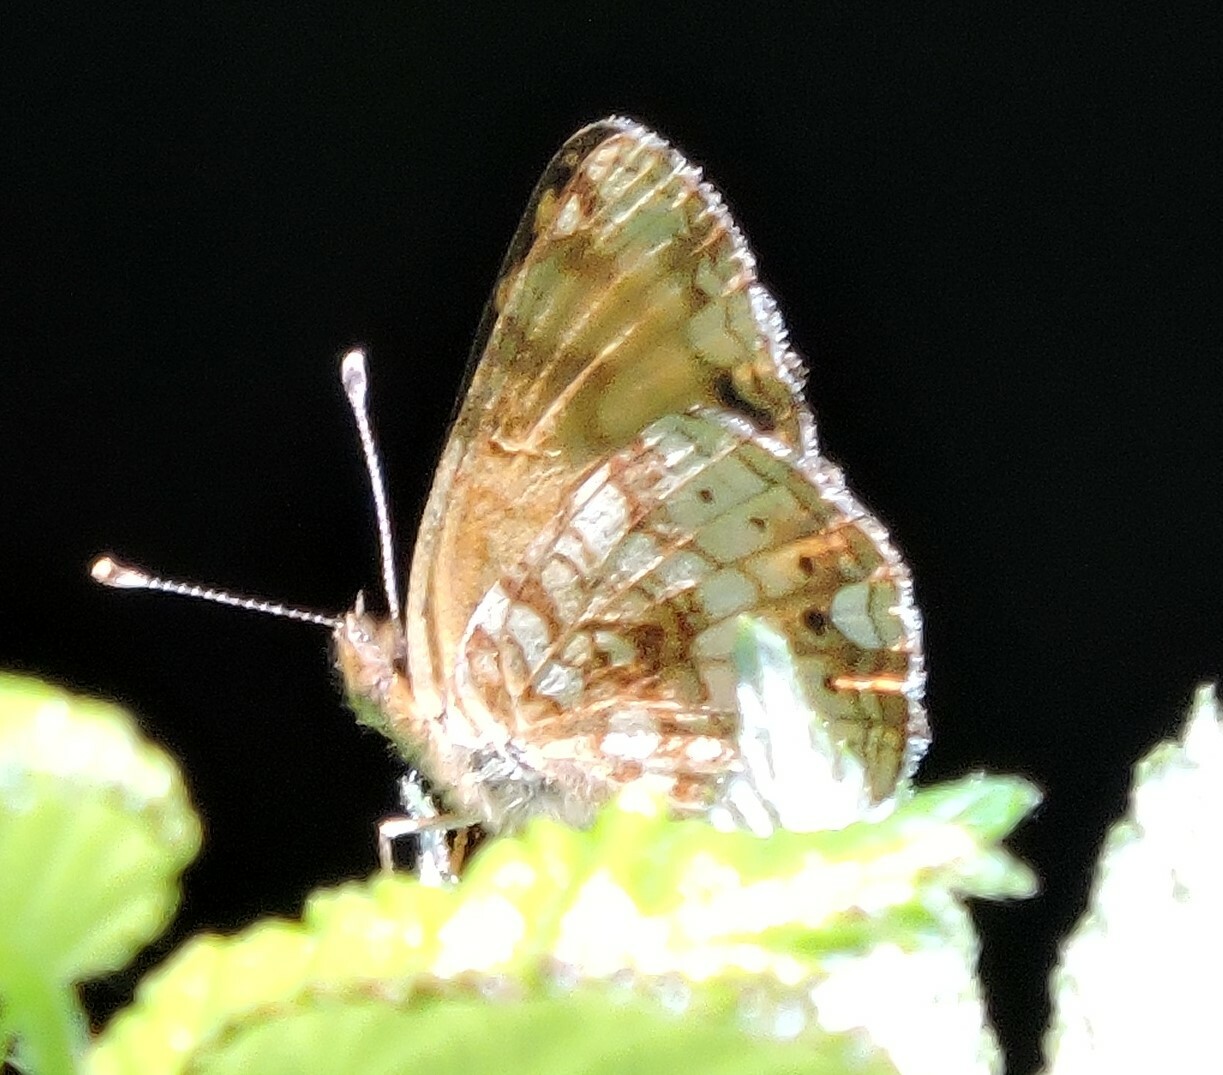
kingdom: Animalia
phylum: Arthropoda
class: Insecta
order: Lepidoptera
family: Nymphalidae
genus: Eresia
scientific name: Eresia aveyrona
